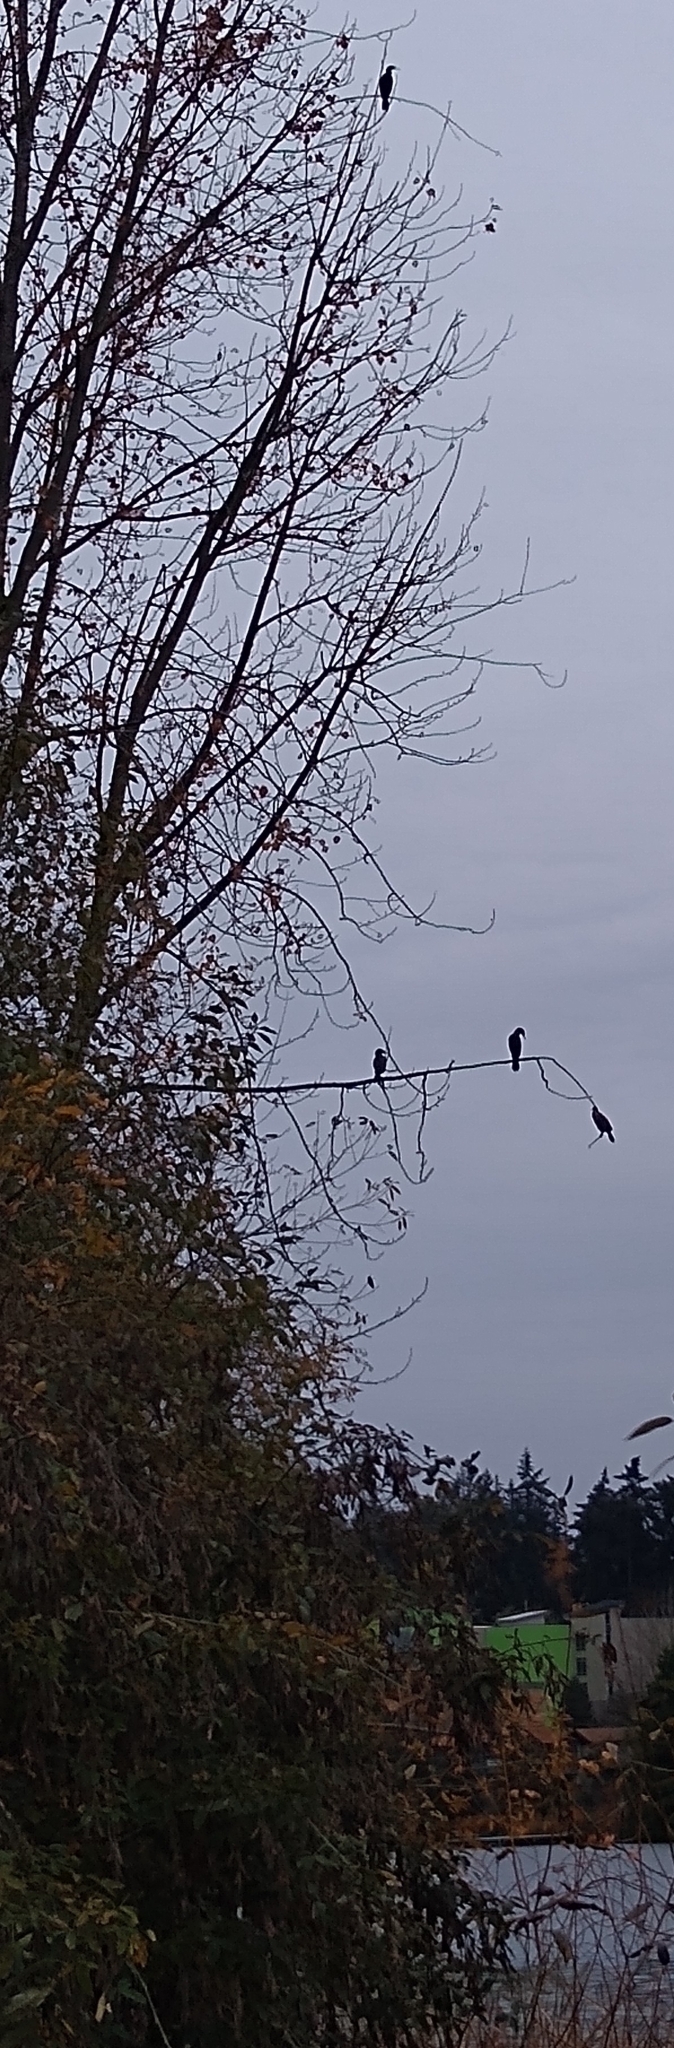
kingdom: Animalia
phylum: Chordata
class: Aves
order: Suliformes
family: Phalacrocoracidae
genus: Phalacrocorax
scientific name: Phalacrocorax auritus
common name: Double-crested cormorant
